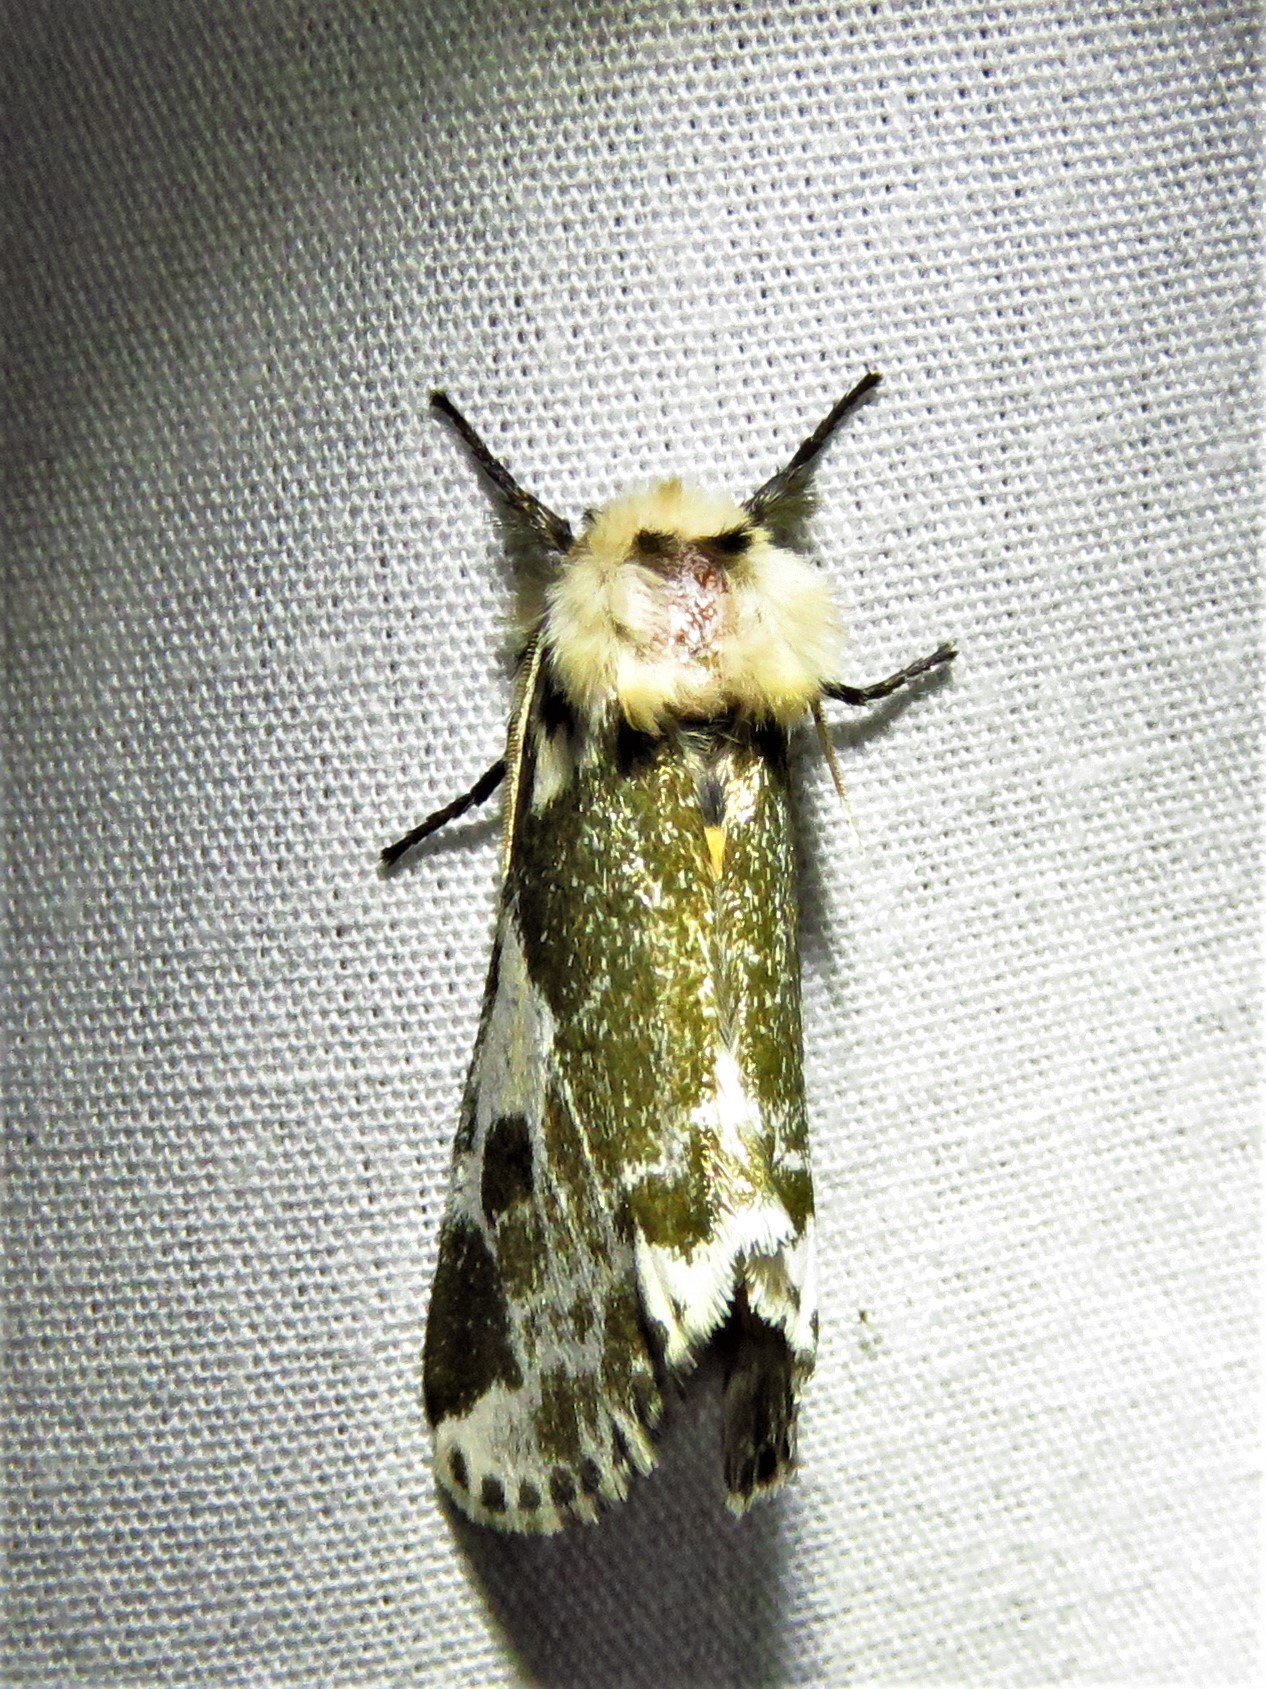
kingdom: Animalia
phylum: Arthropoda
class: Insecta
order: Lepidoptera
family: Erebidae
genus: Sciatta
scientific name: Sciatta inconcisa
